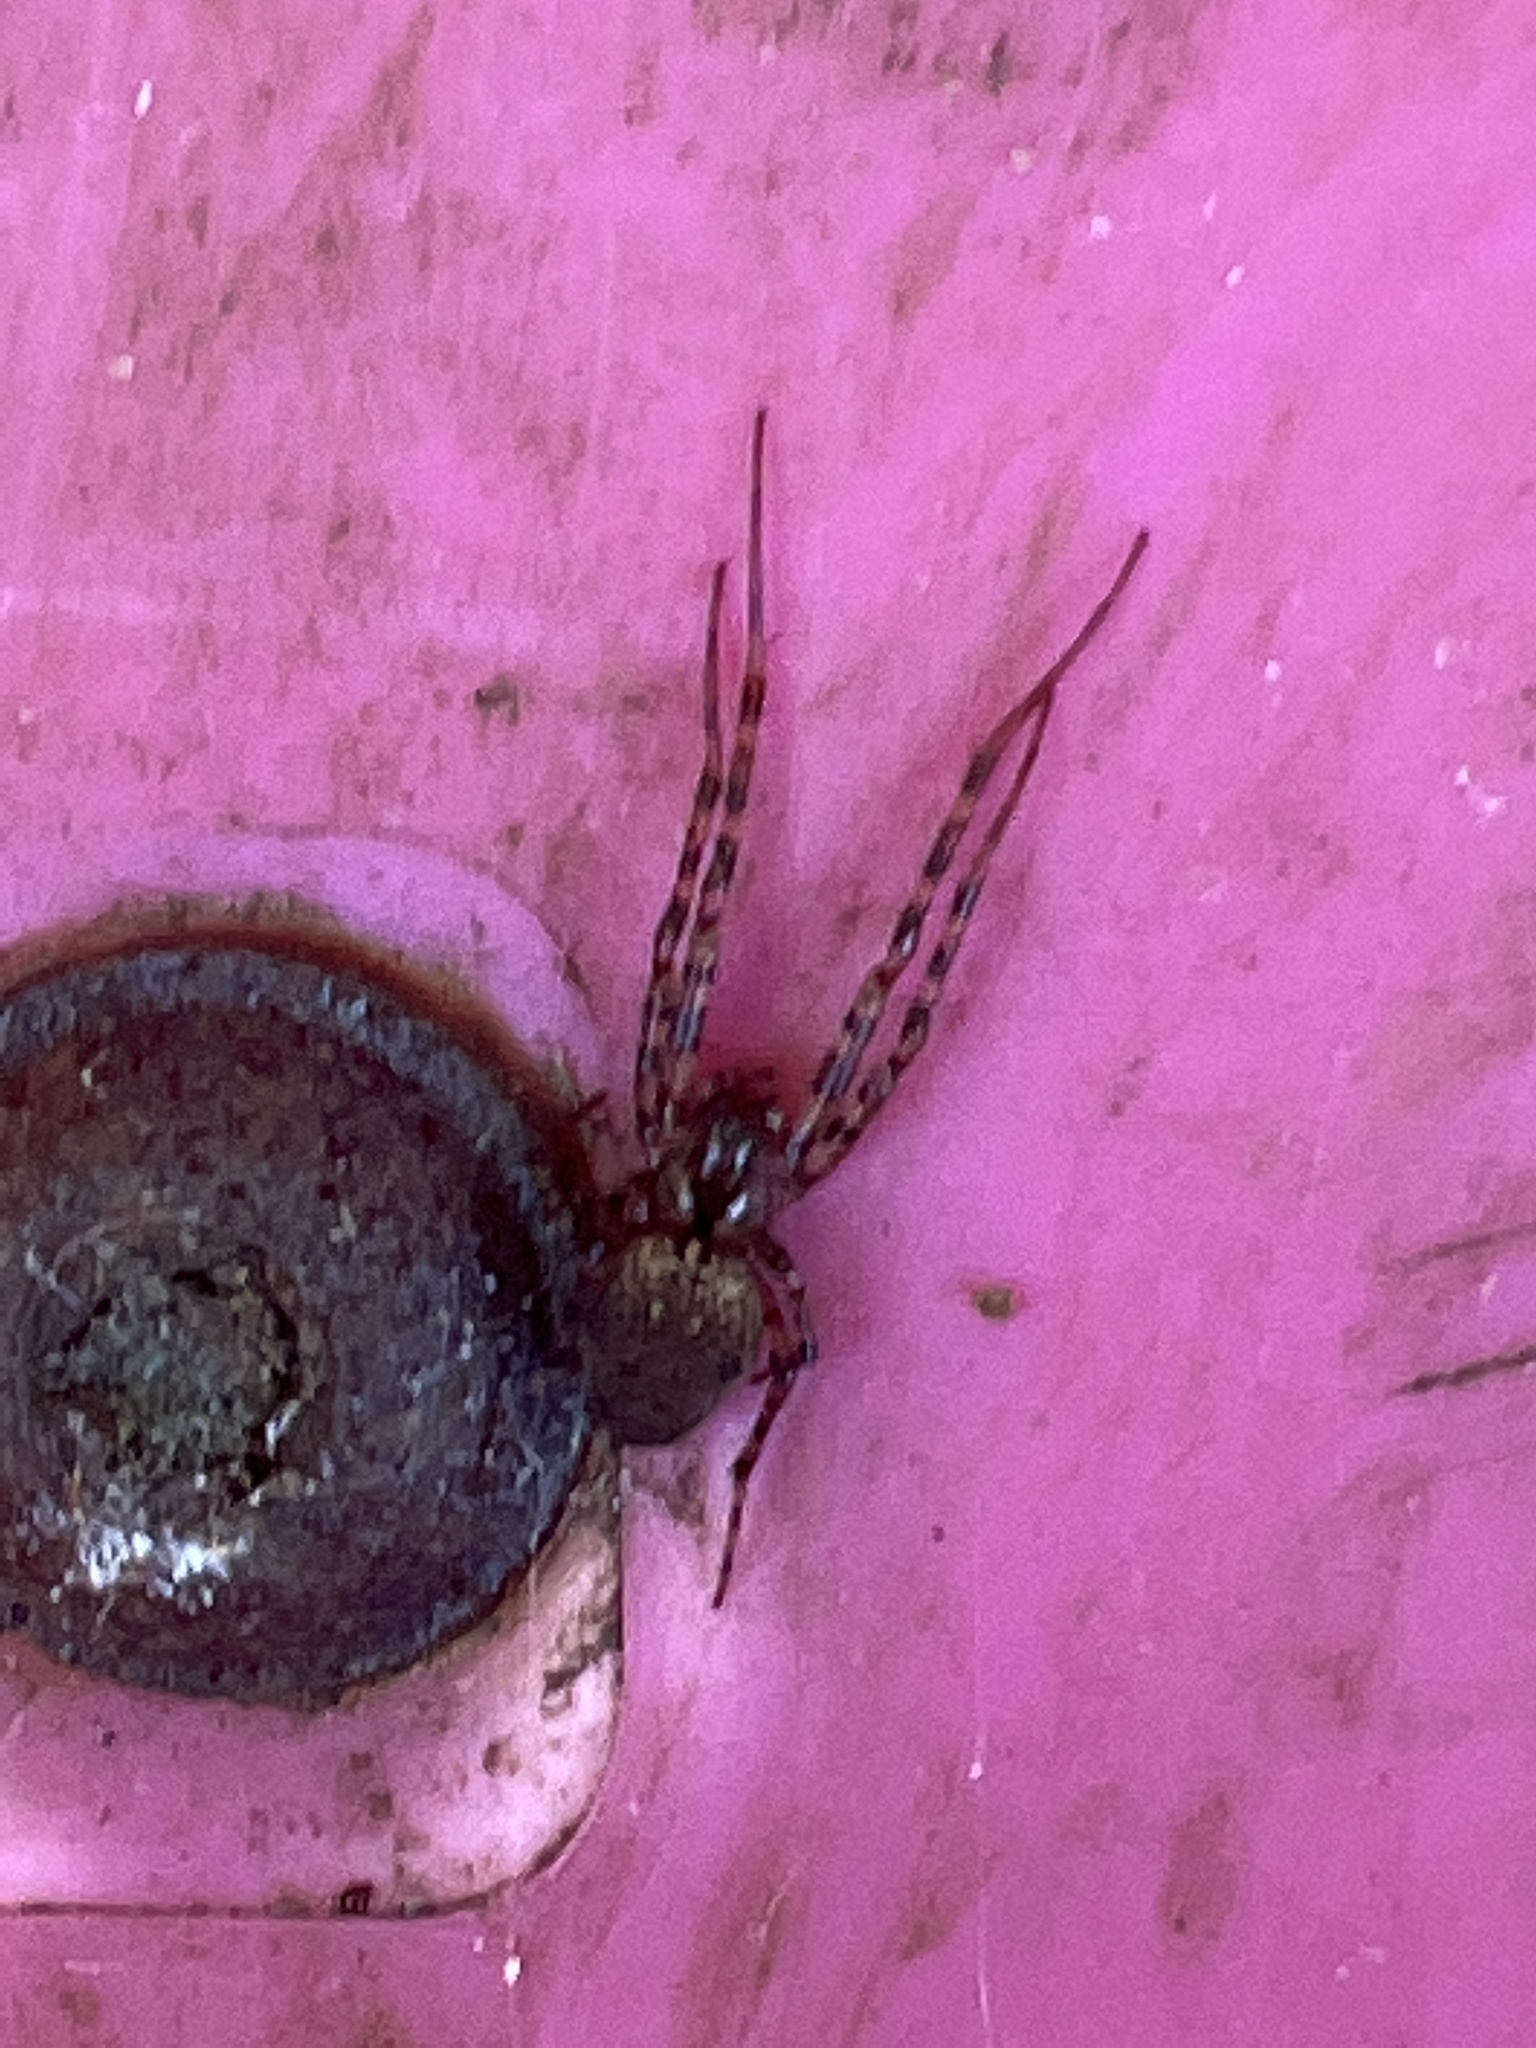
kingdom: Animalia
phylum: Arthropoda
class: Arachnida
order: Araneae
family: Tetragnathidae
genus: Metellina
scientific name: Metellina merianae
